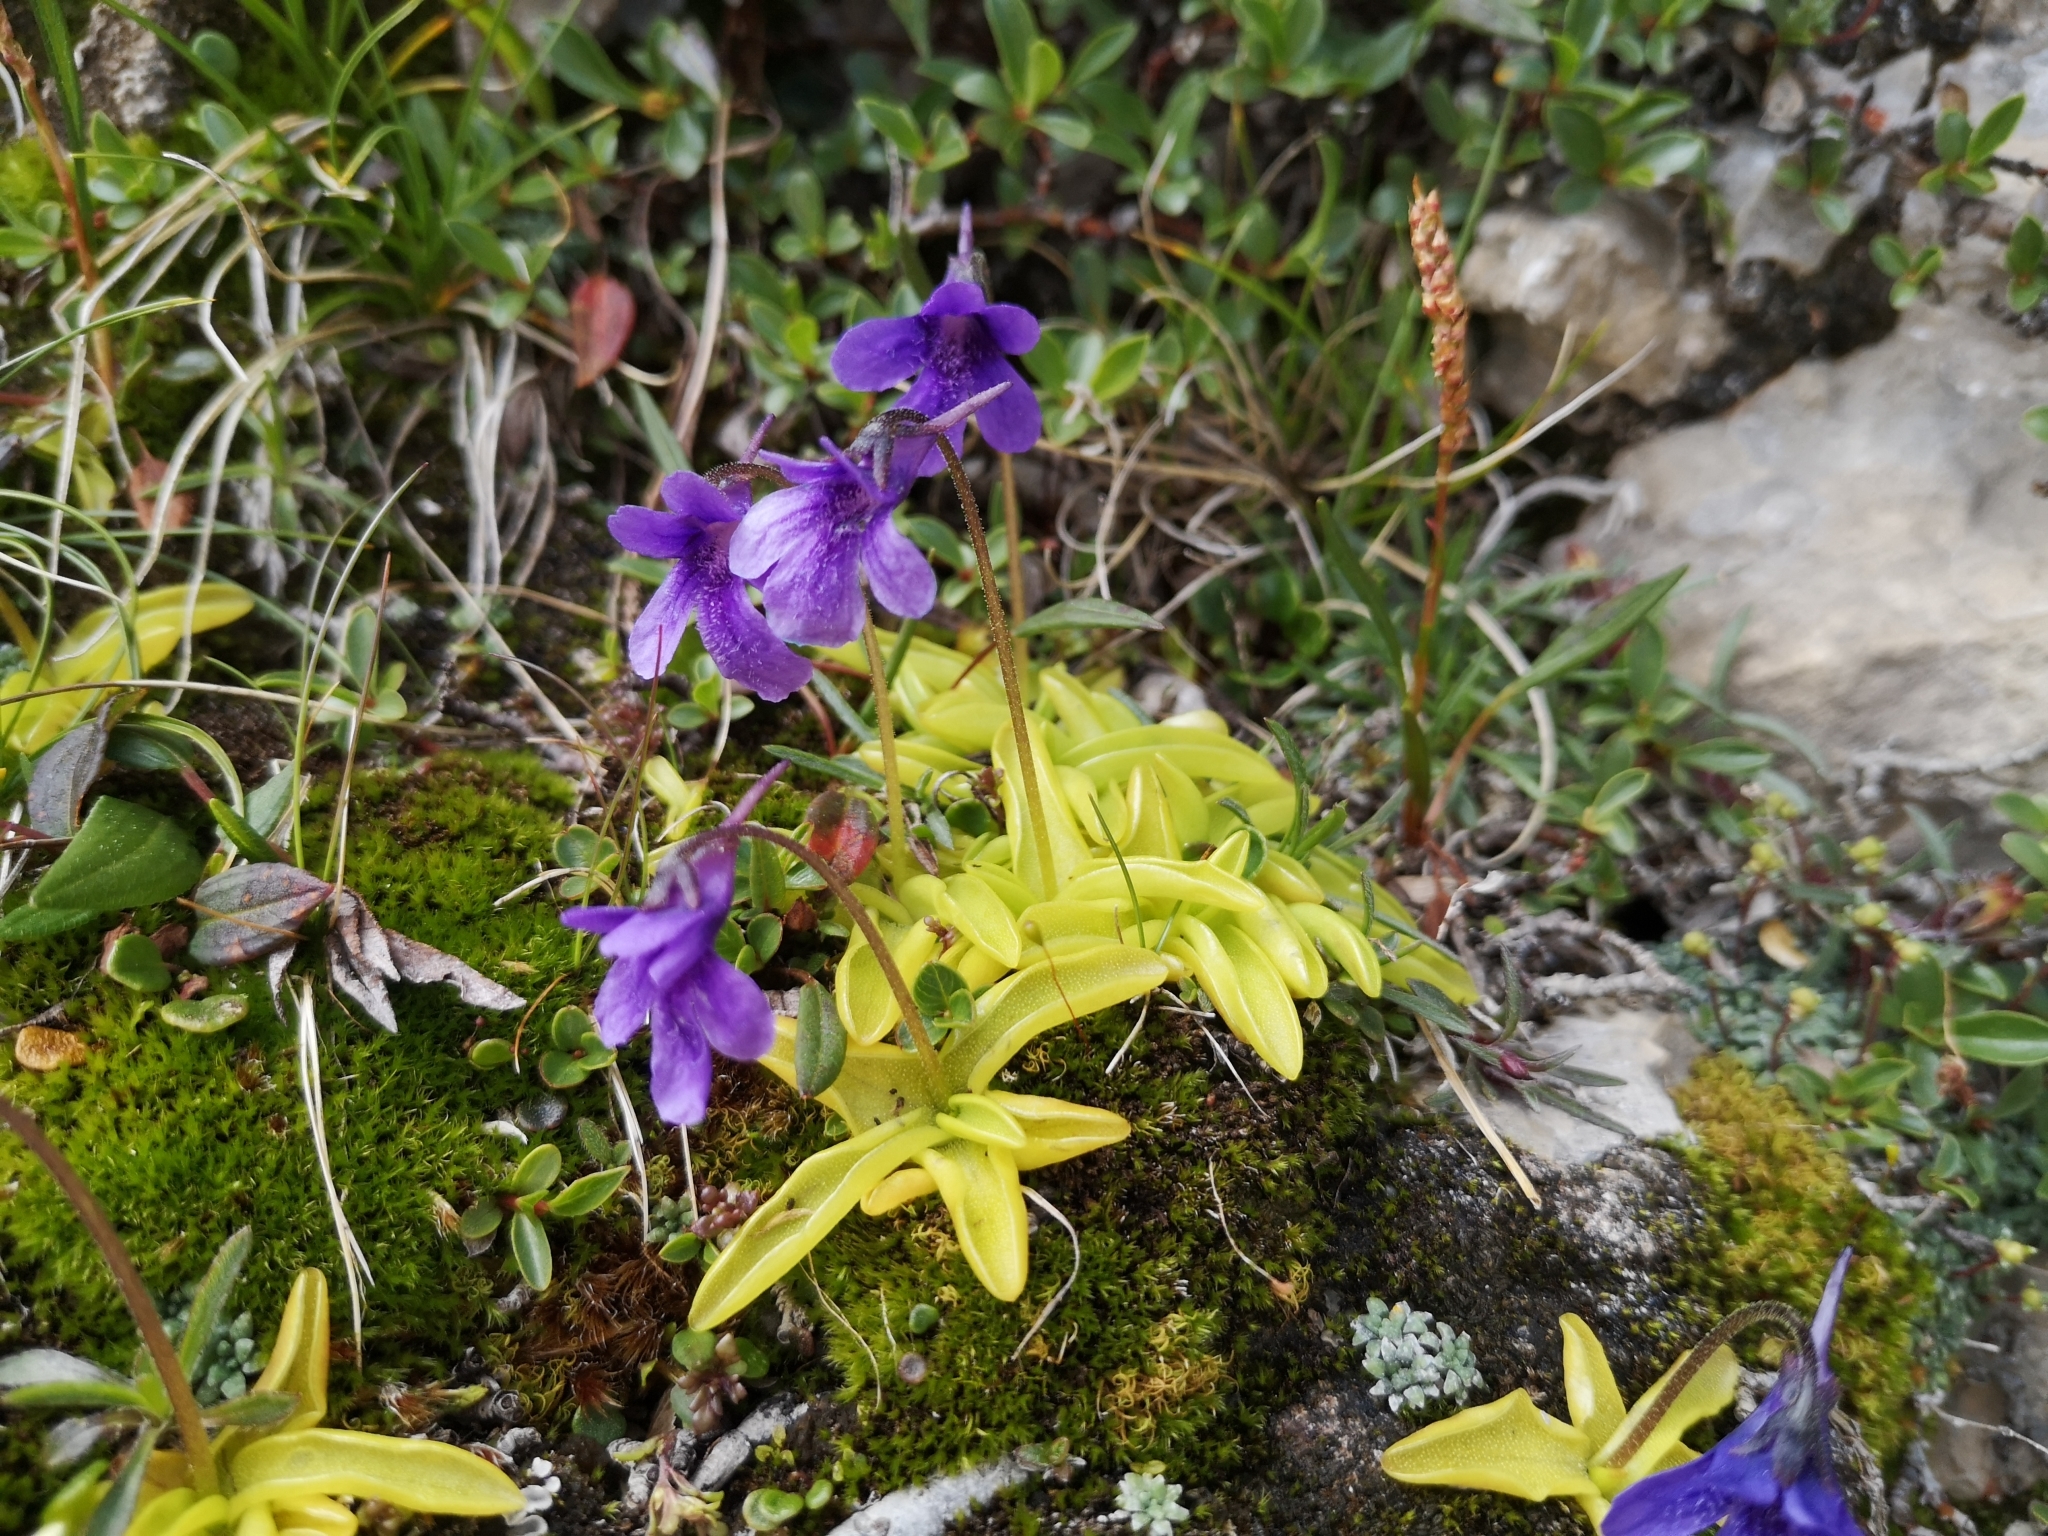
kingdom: Plantae
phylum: Tracheophyta
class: Magnoliopsida
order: Lamiales
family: Lentibulariaceae
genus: Pinguicula
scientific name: Pinguicula fiorii
